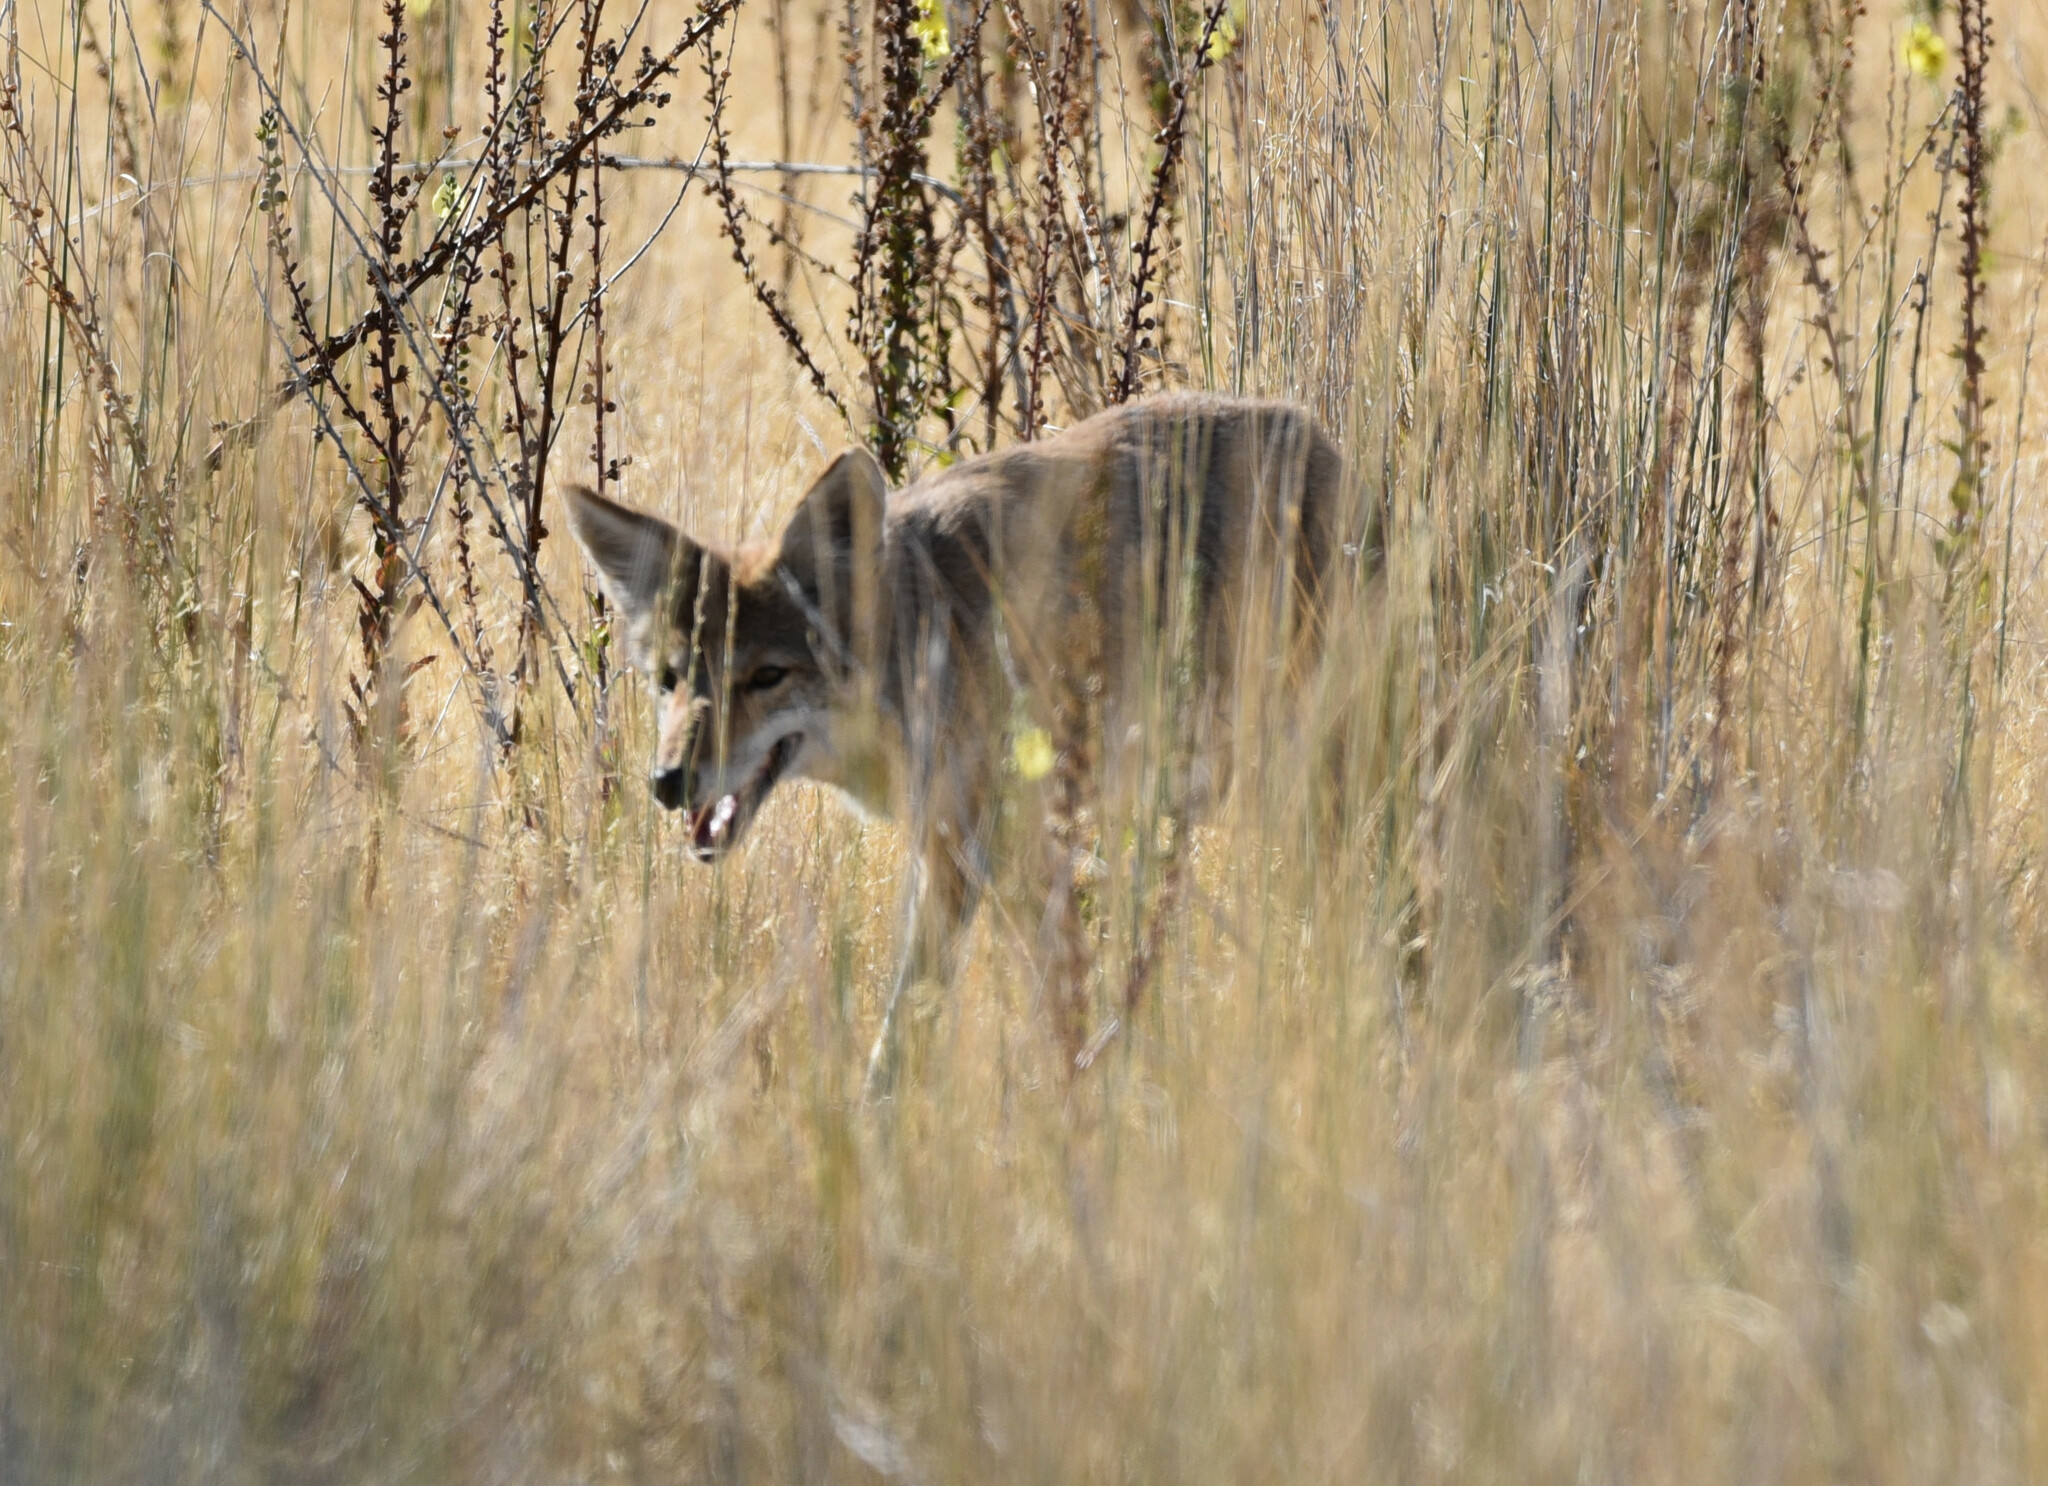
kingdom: Animalia
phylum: Chordata
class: Mammalia
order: Carnivora
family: Canidae
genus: Canis
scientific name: Canis latrans
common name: Coyote
